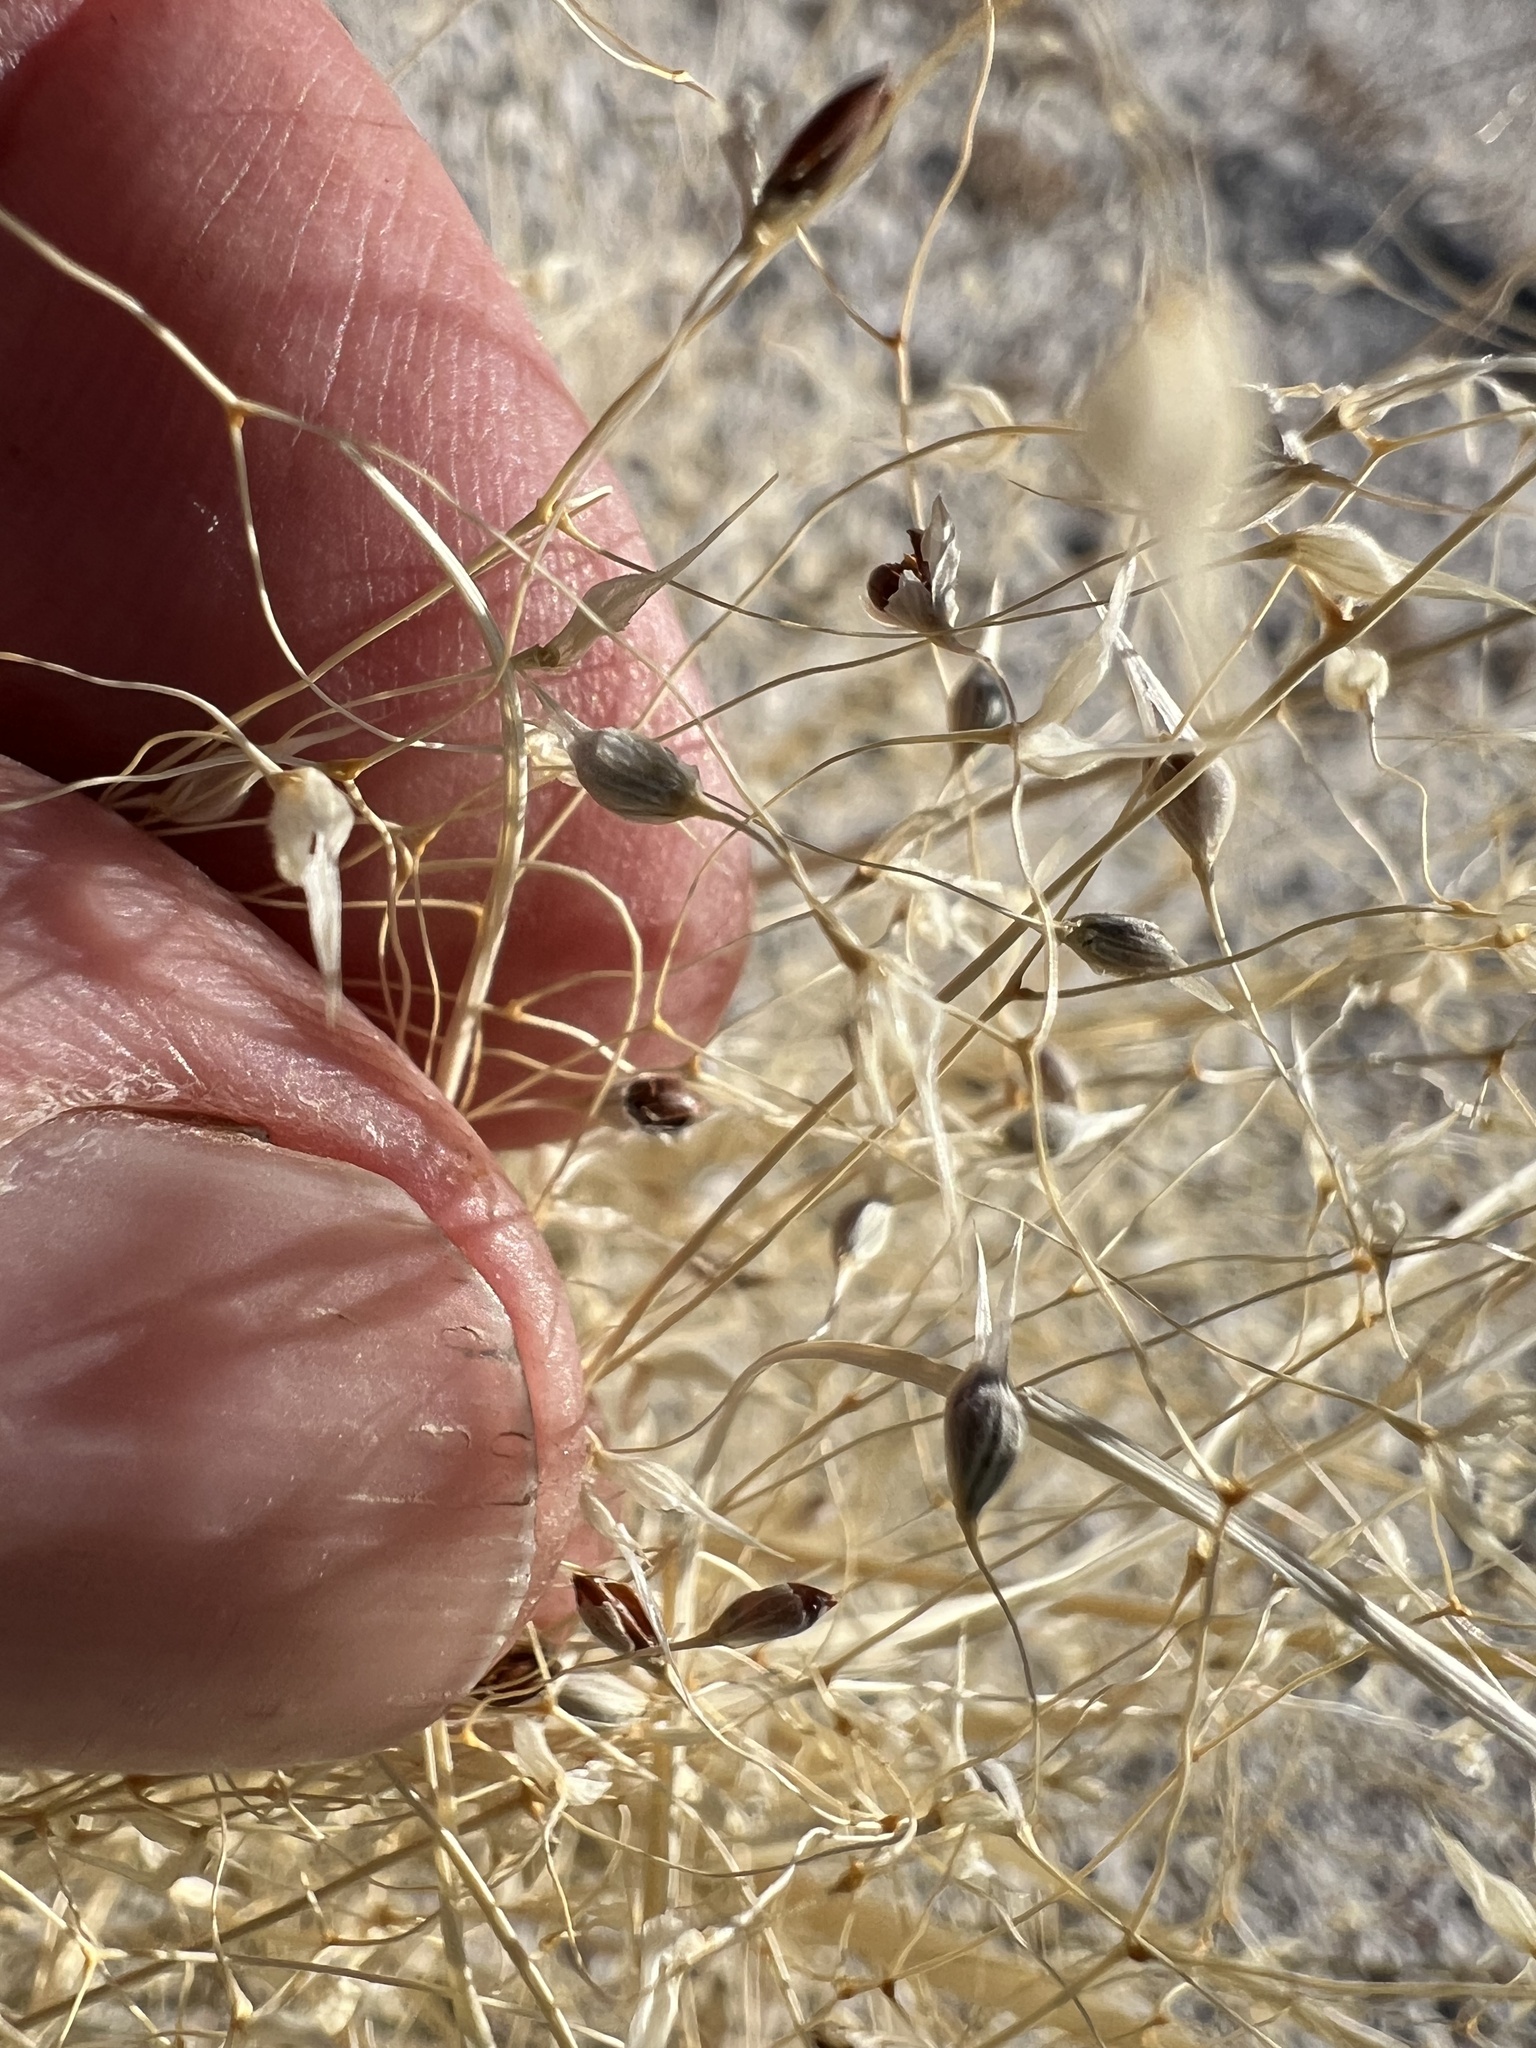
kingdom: Plantae
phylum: Tracheophyta
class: Liliopsida
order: Poales
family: Poaceae
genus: Eriocoma
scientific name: Eriocoma hymenoides
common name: Indian mountain ricegrass
